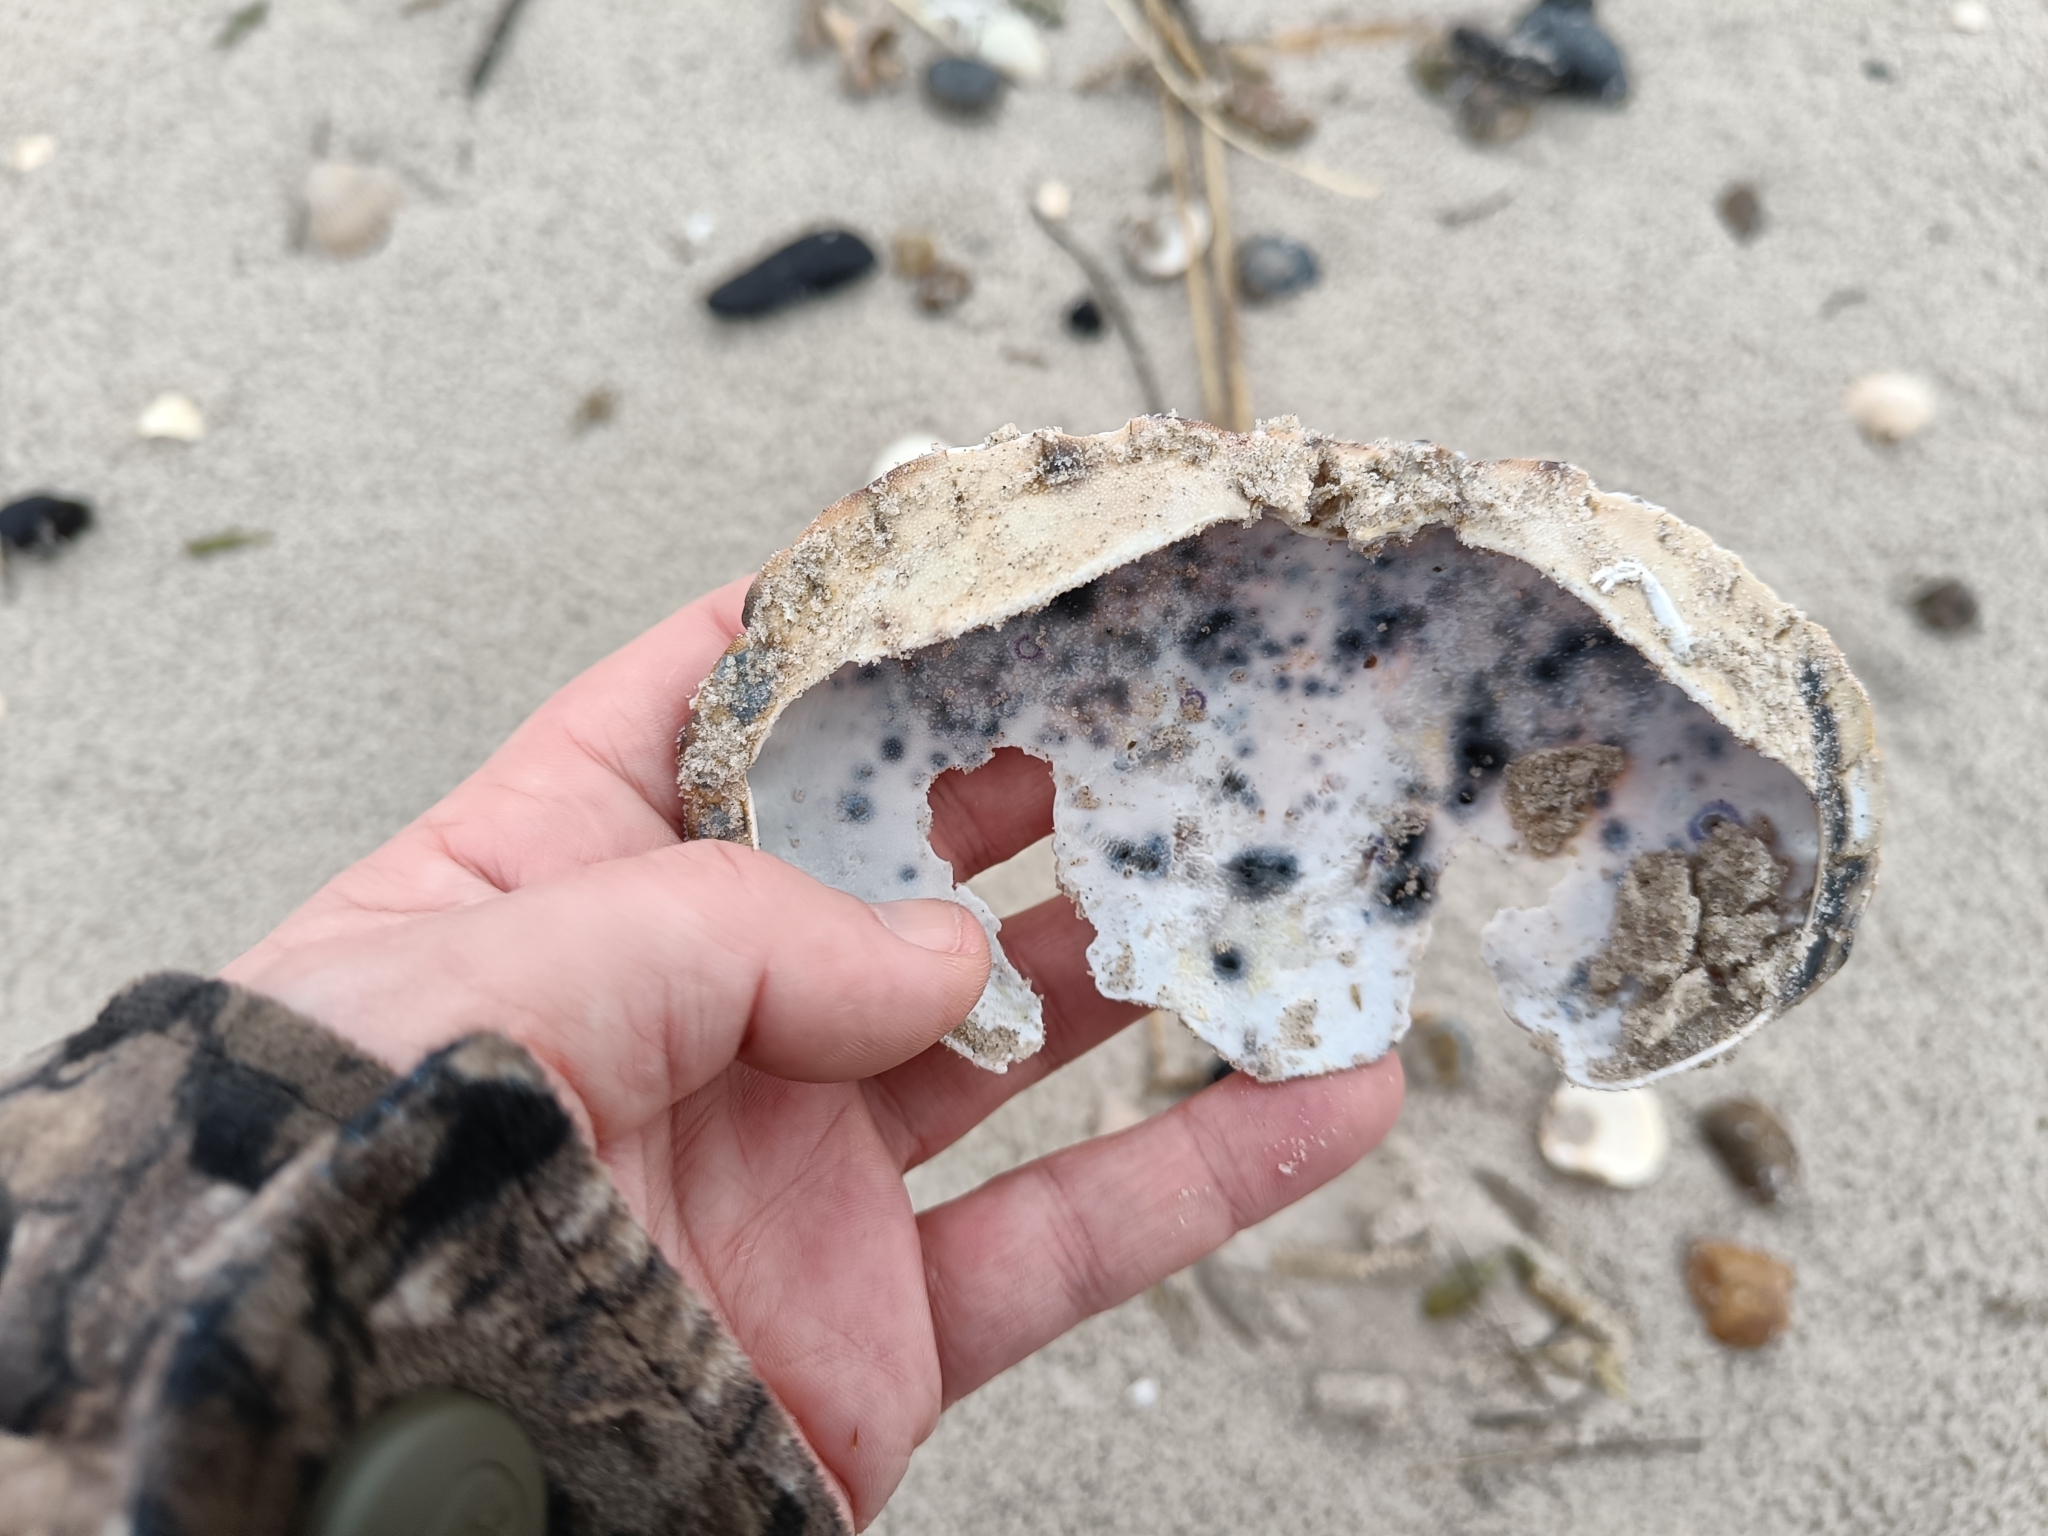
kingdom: Animalia
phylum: Arthropoda
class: Malacostraca
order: Decapoda
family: Cancridae
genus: Cancer
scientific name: Cancer pagurus
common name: Edible crab
